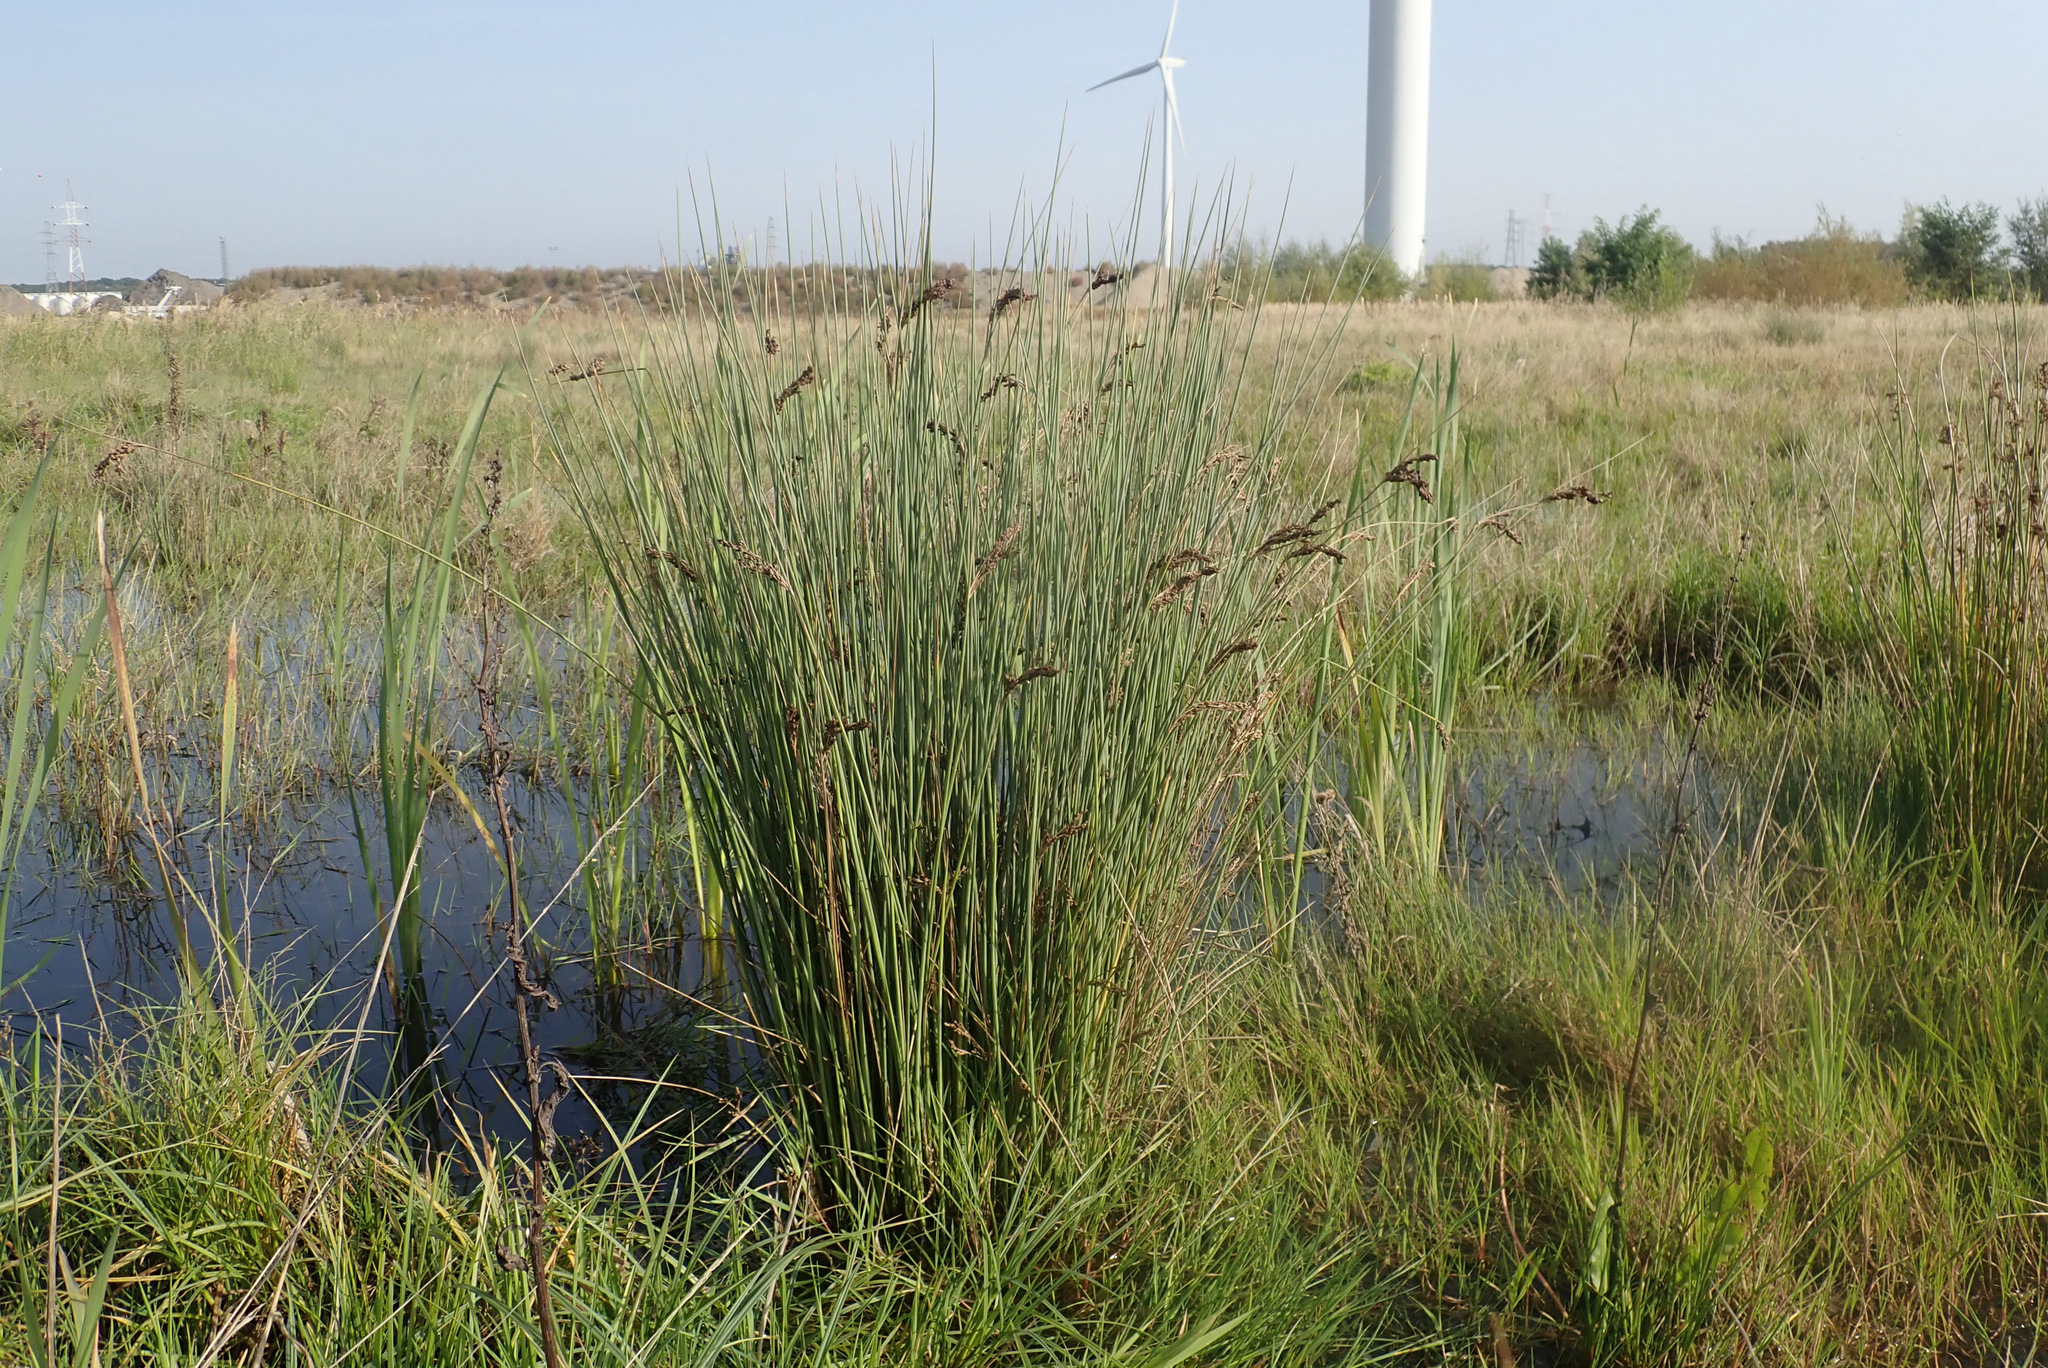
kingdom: Plantae
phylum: Tracheophyta
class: Liliopsida
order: Poales
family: Juncaceae
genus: Juncus
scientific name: Juncus inflexus
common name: Hard rush
